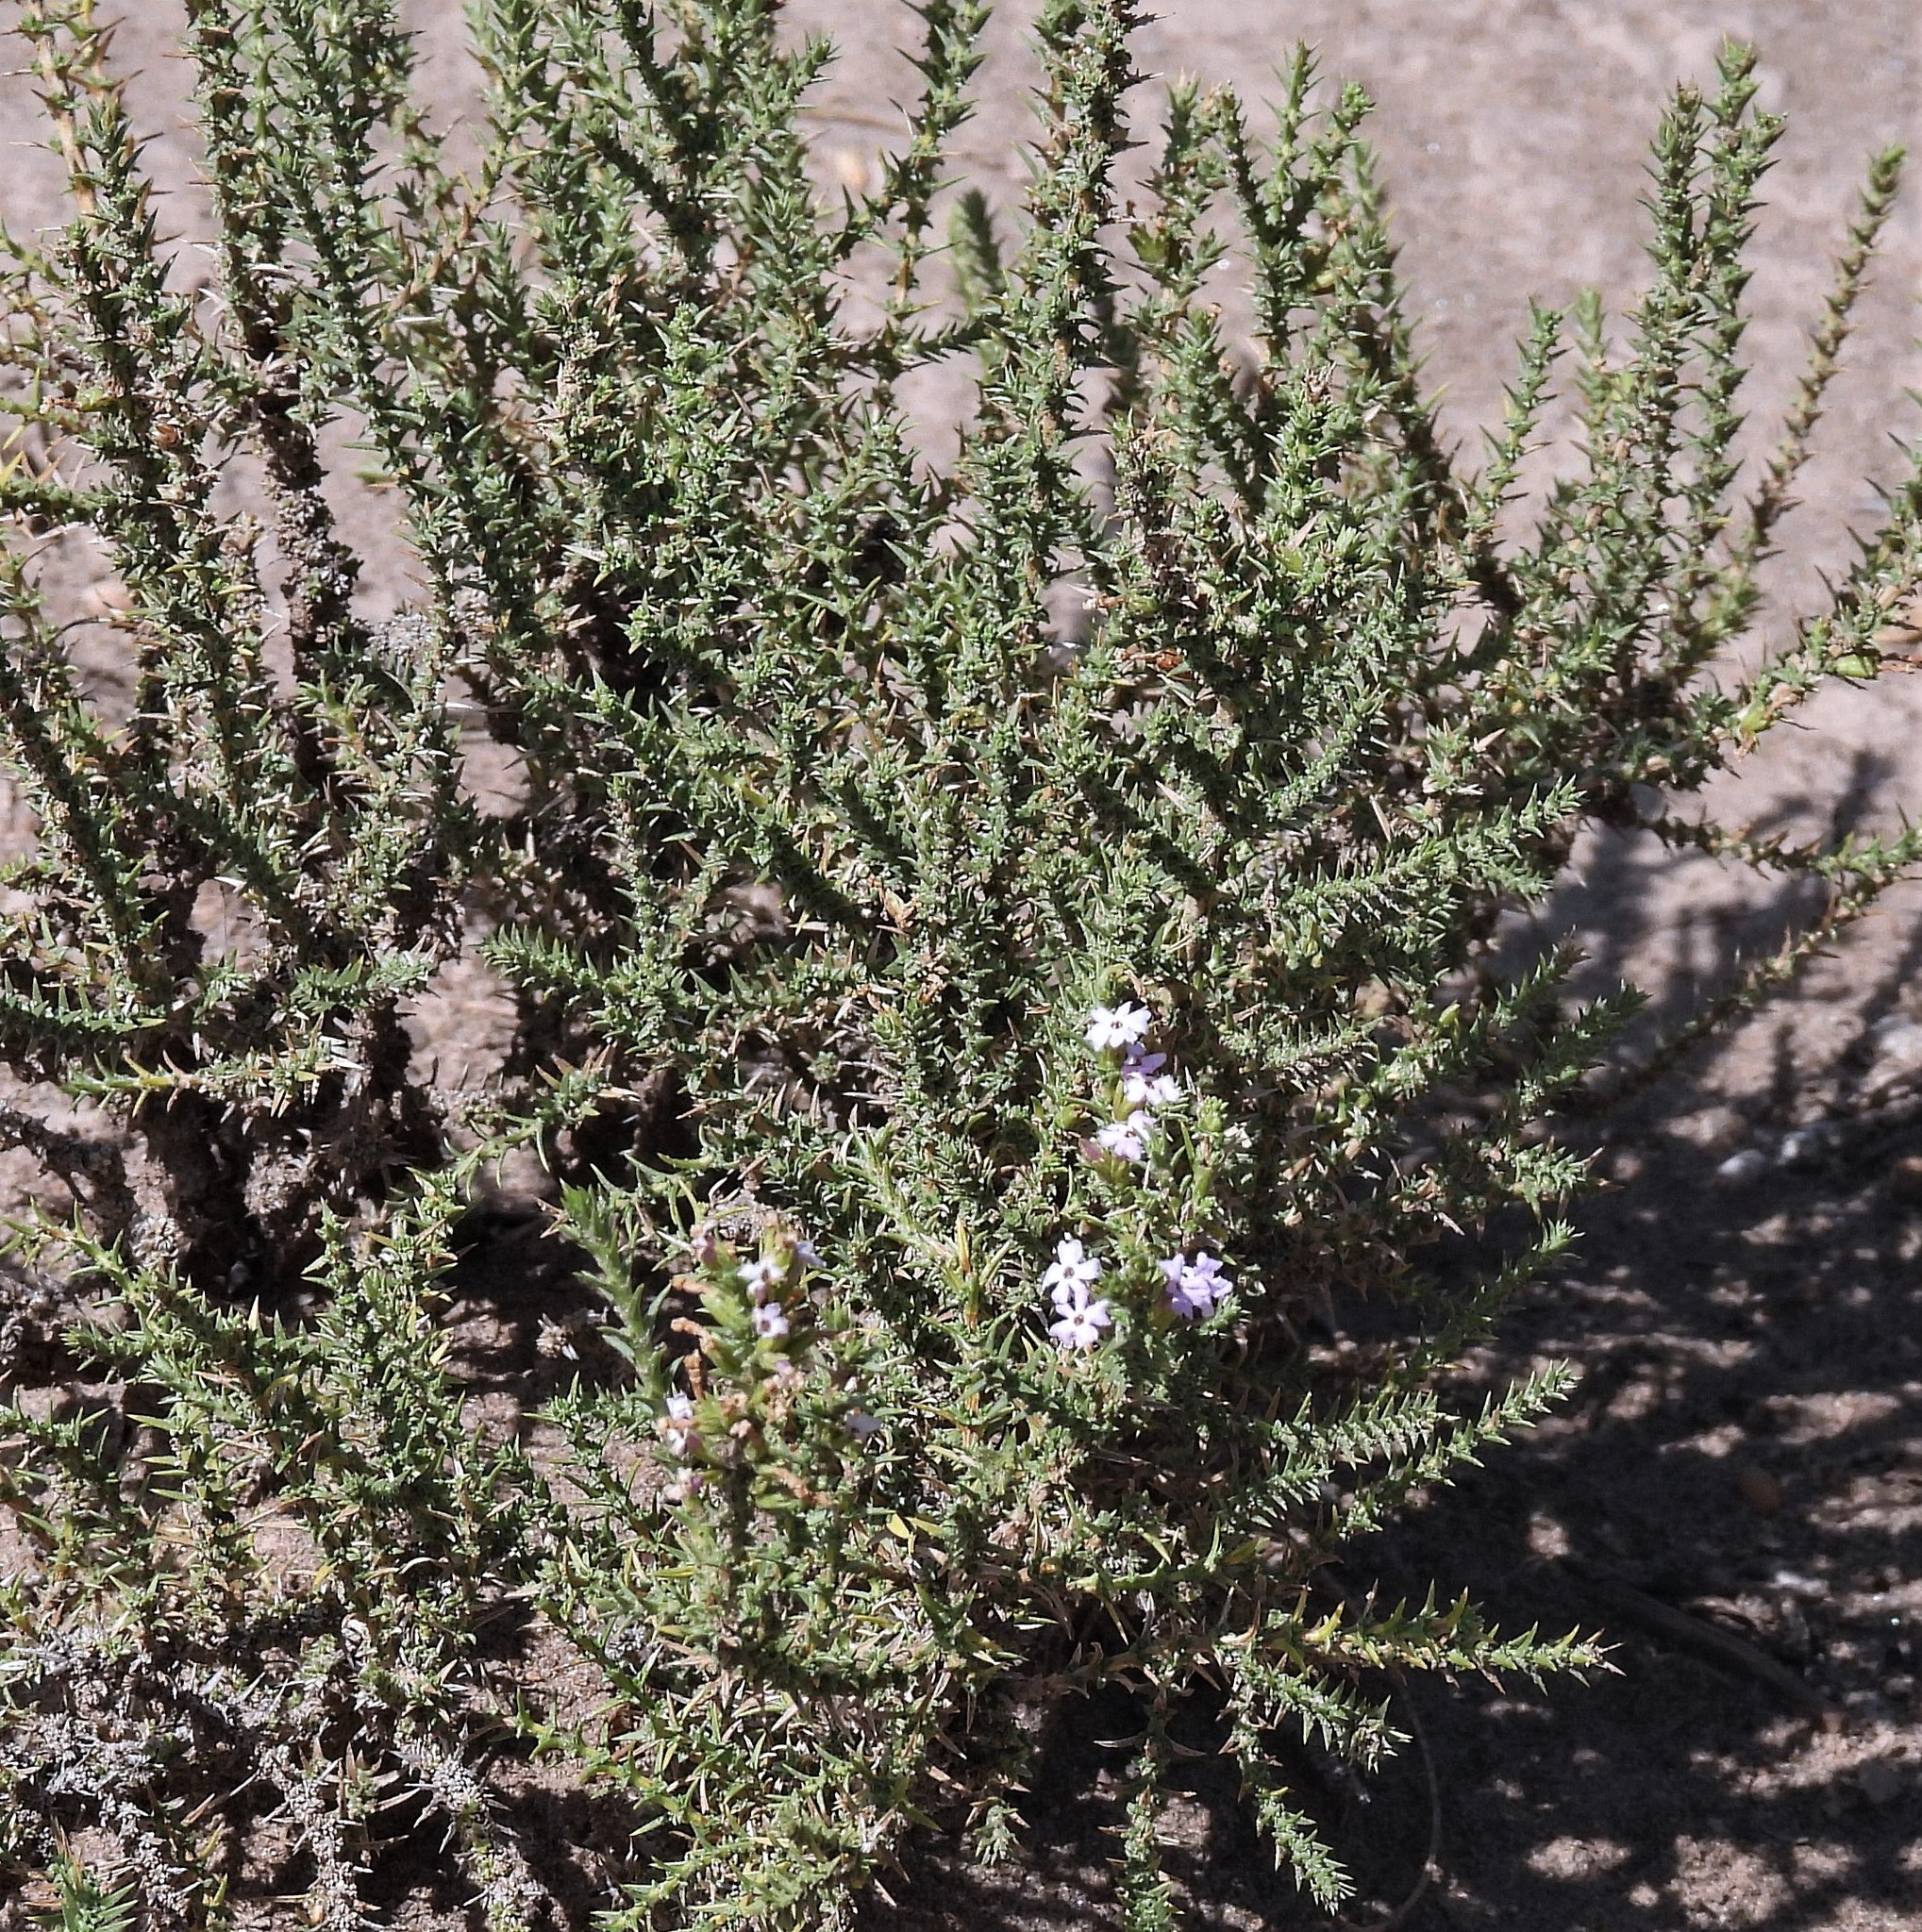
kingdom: Plantae
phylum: Tracheophyta
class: Magnoliopsida
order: Lamiales
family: Verbenaceae
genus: Junellia
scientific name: Junellia seriphioides
